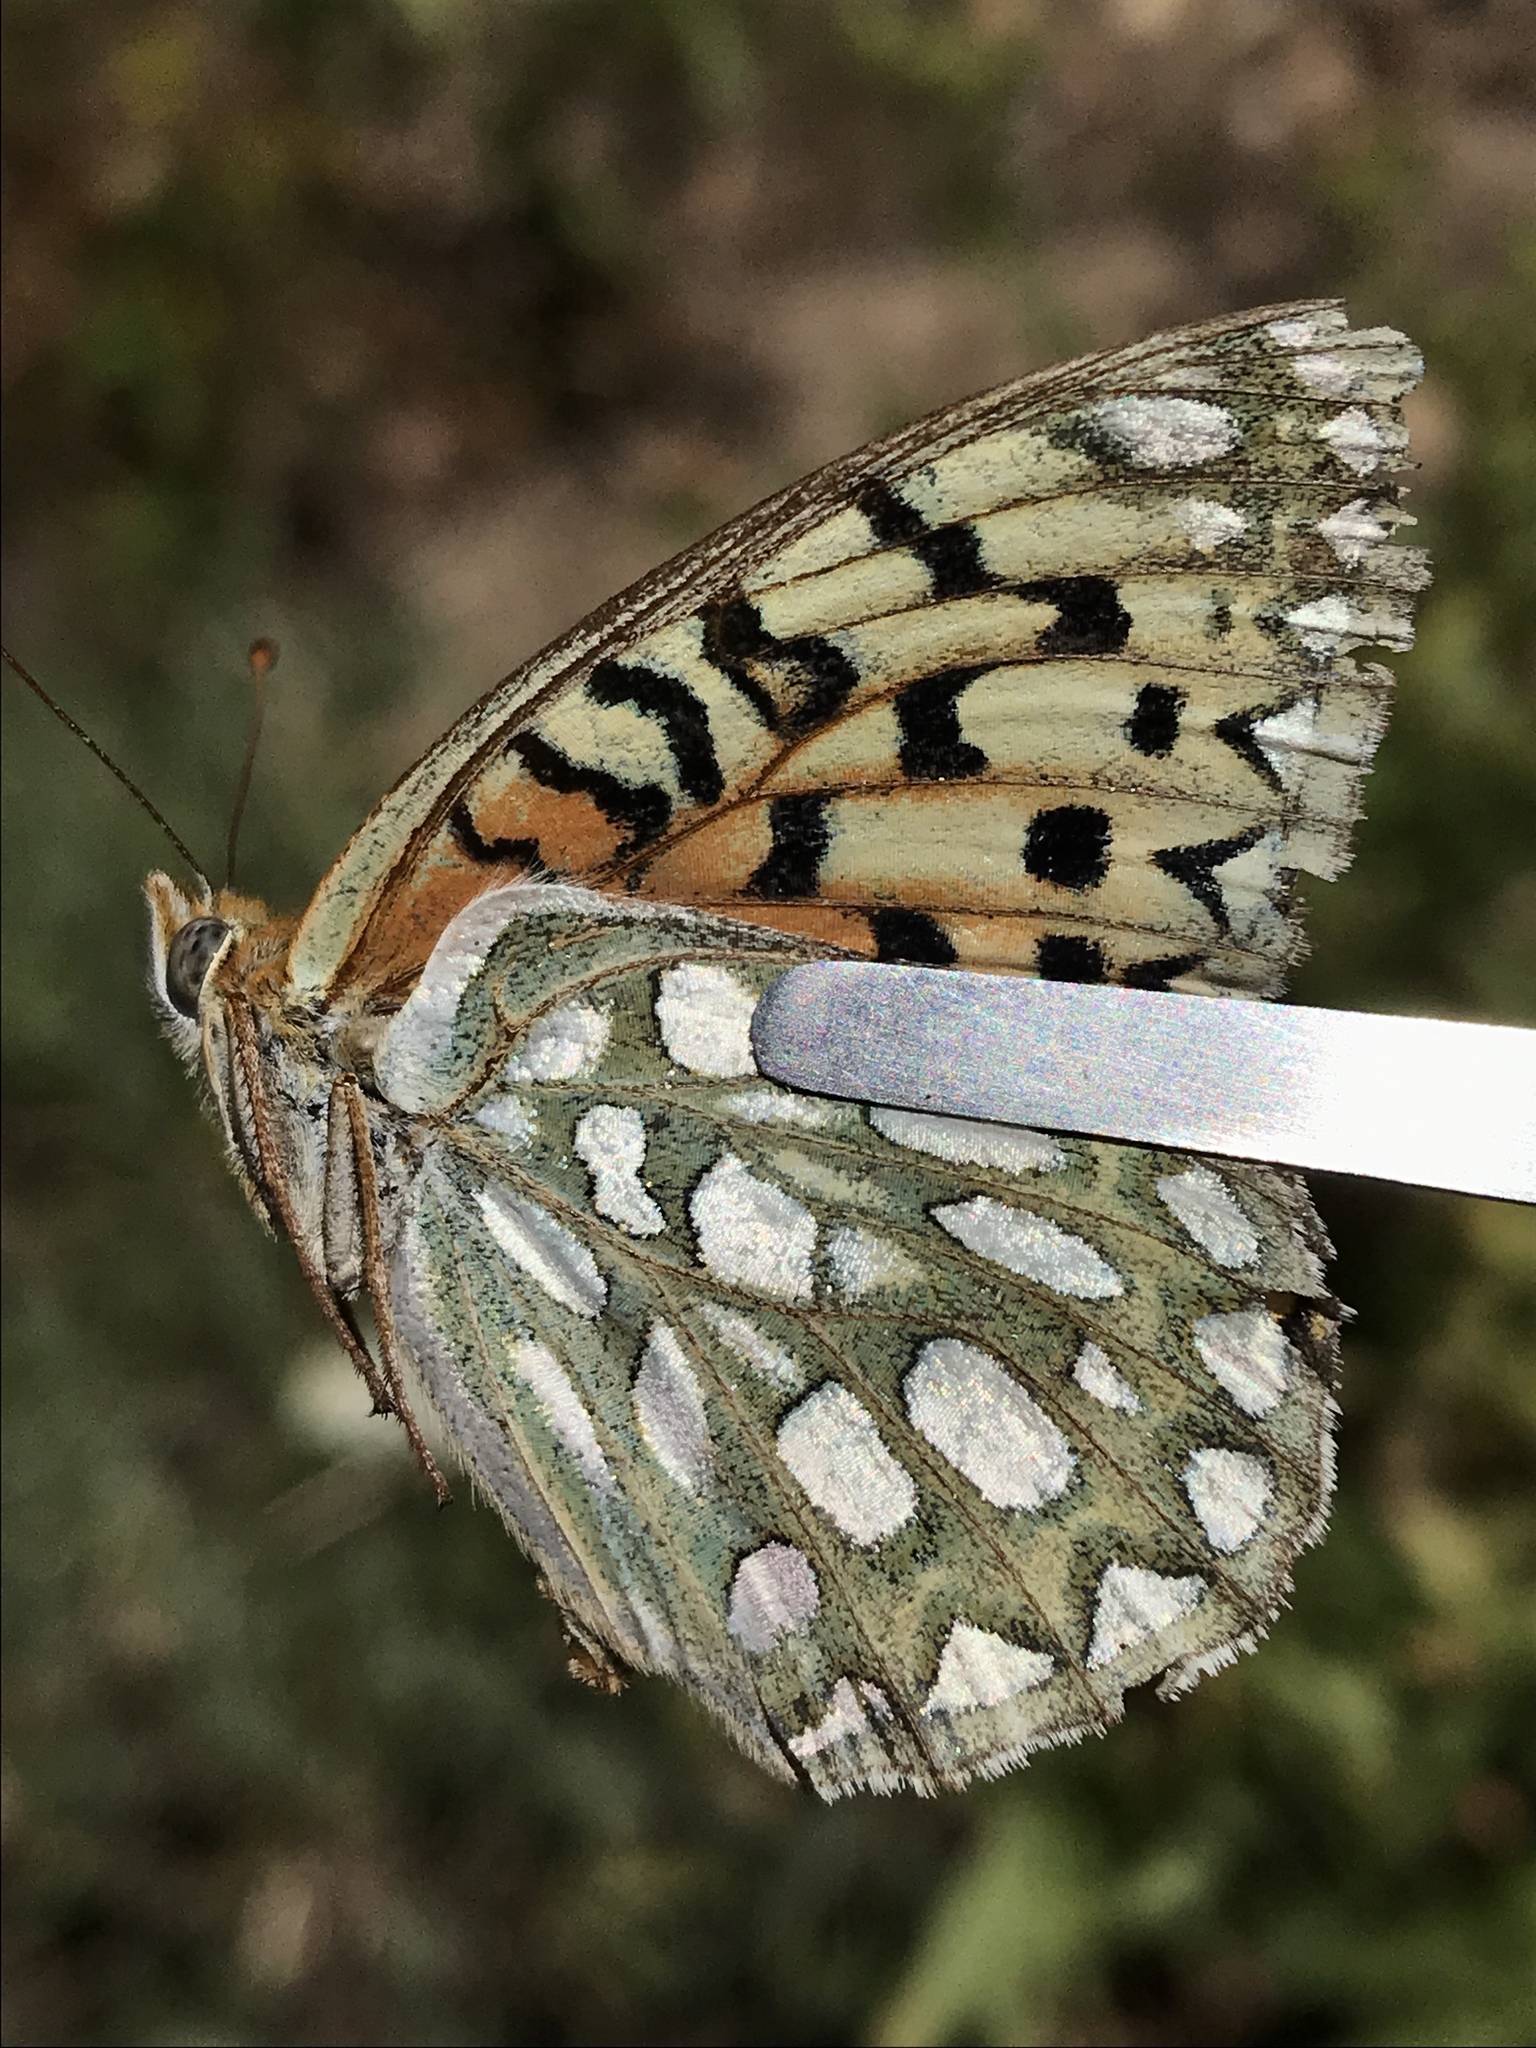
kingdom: Animalia
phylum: Arthropoda
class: Insecta
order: Lepidoptera
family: Nymphalidae
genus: Speyeria
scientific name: Speyeria callippe
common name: Callippe fritillary
